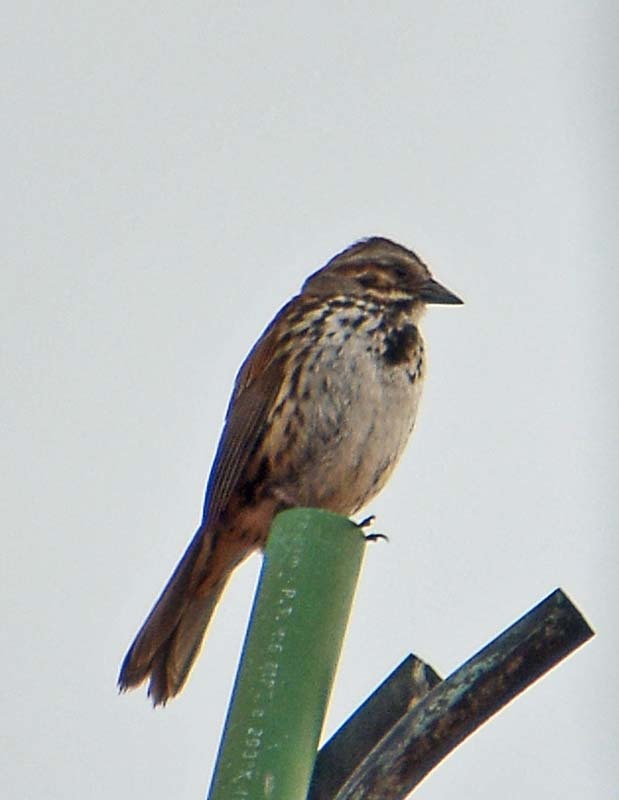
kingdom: Animalia
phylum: Chordata
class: Aves
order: Passeriformes
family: Passerellidae
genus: Melospiza
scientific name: Melospiza melodia
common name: Song sparrow
